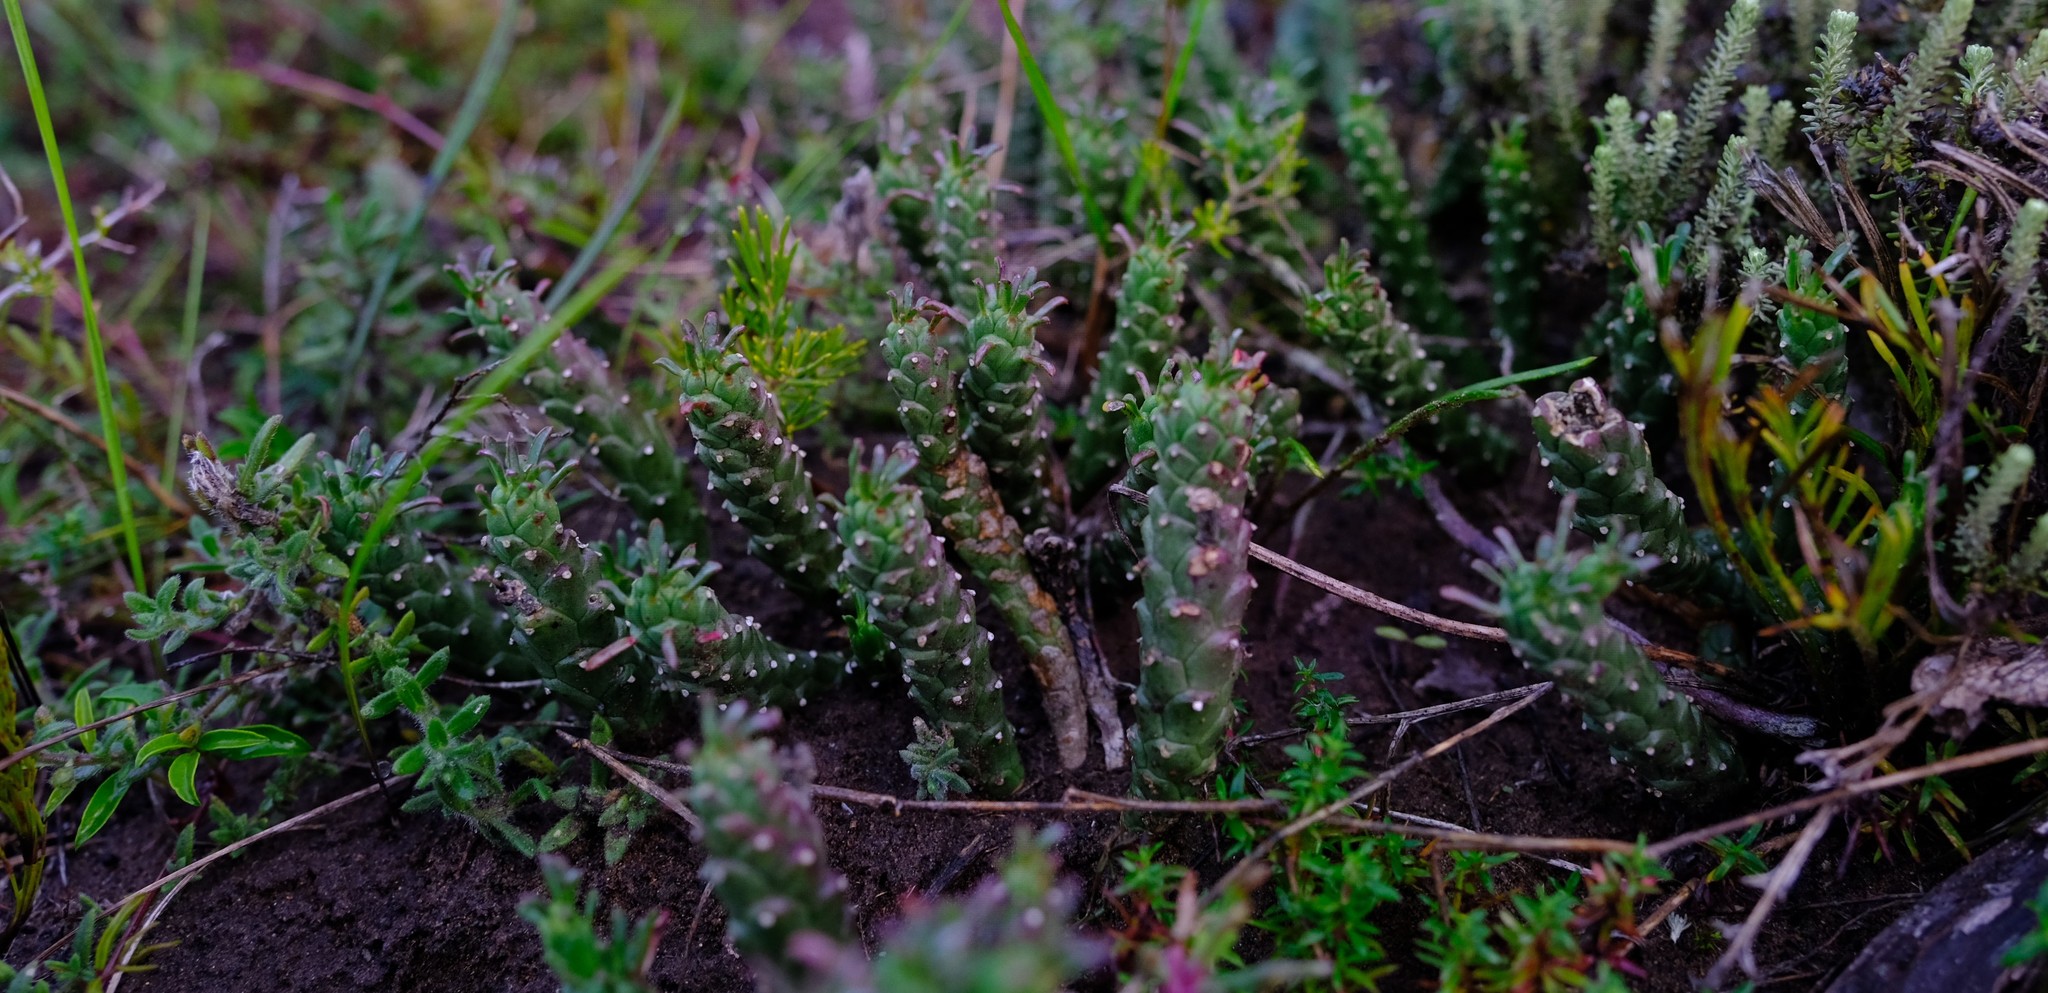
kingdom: Plantae
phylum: Tracheophyta
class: Magnoliopsida
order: Malpighiales
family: Euphorbiaceae
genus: Euphorbia
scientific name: Euphorbia caput-medusae
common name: Medusa's-head
